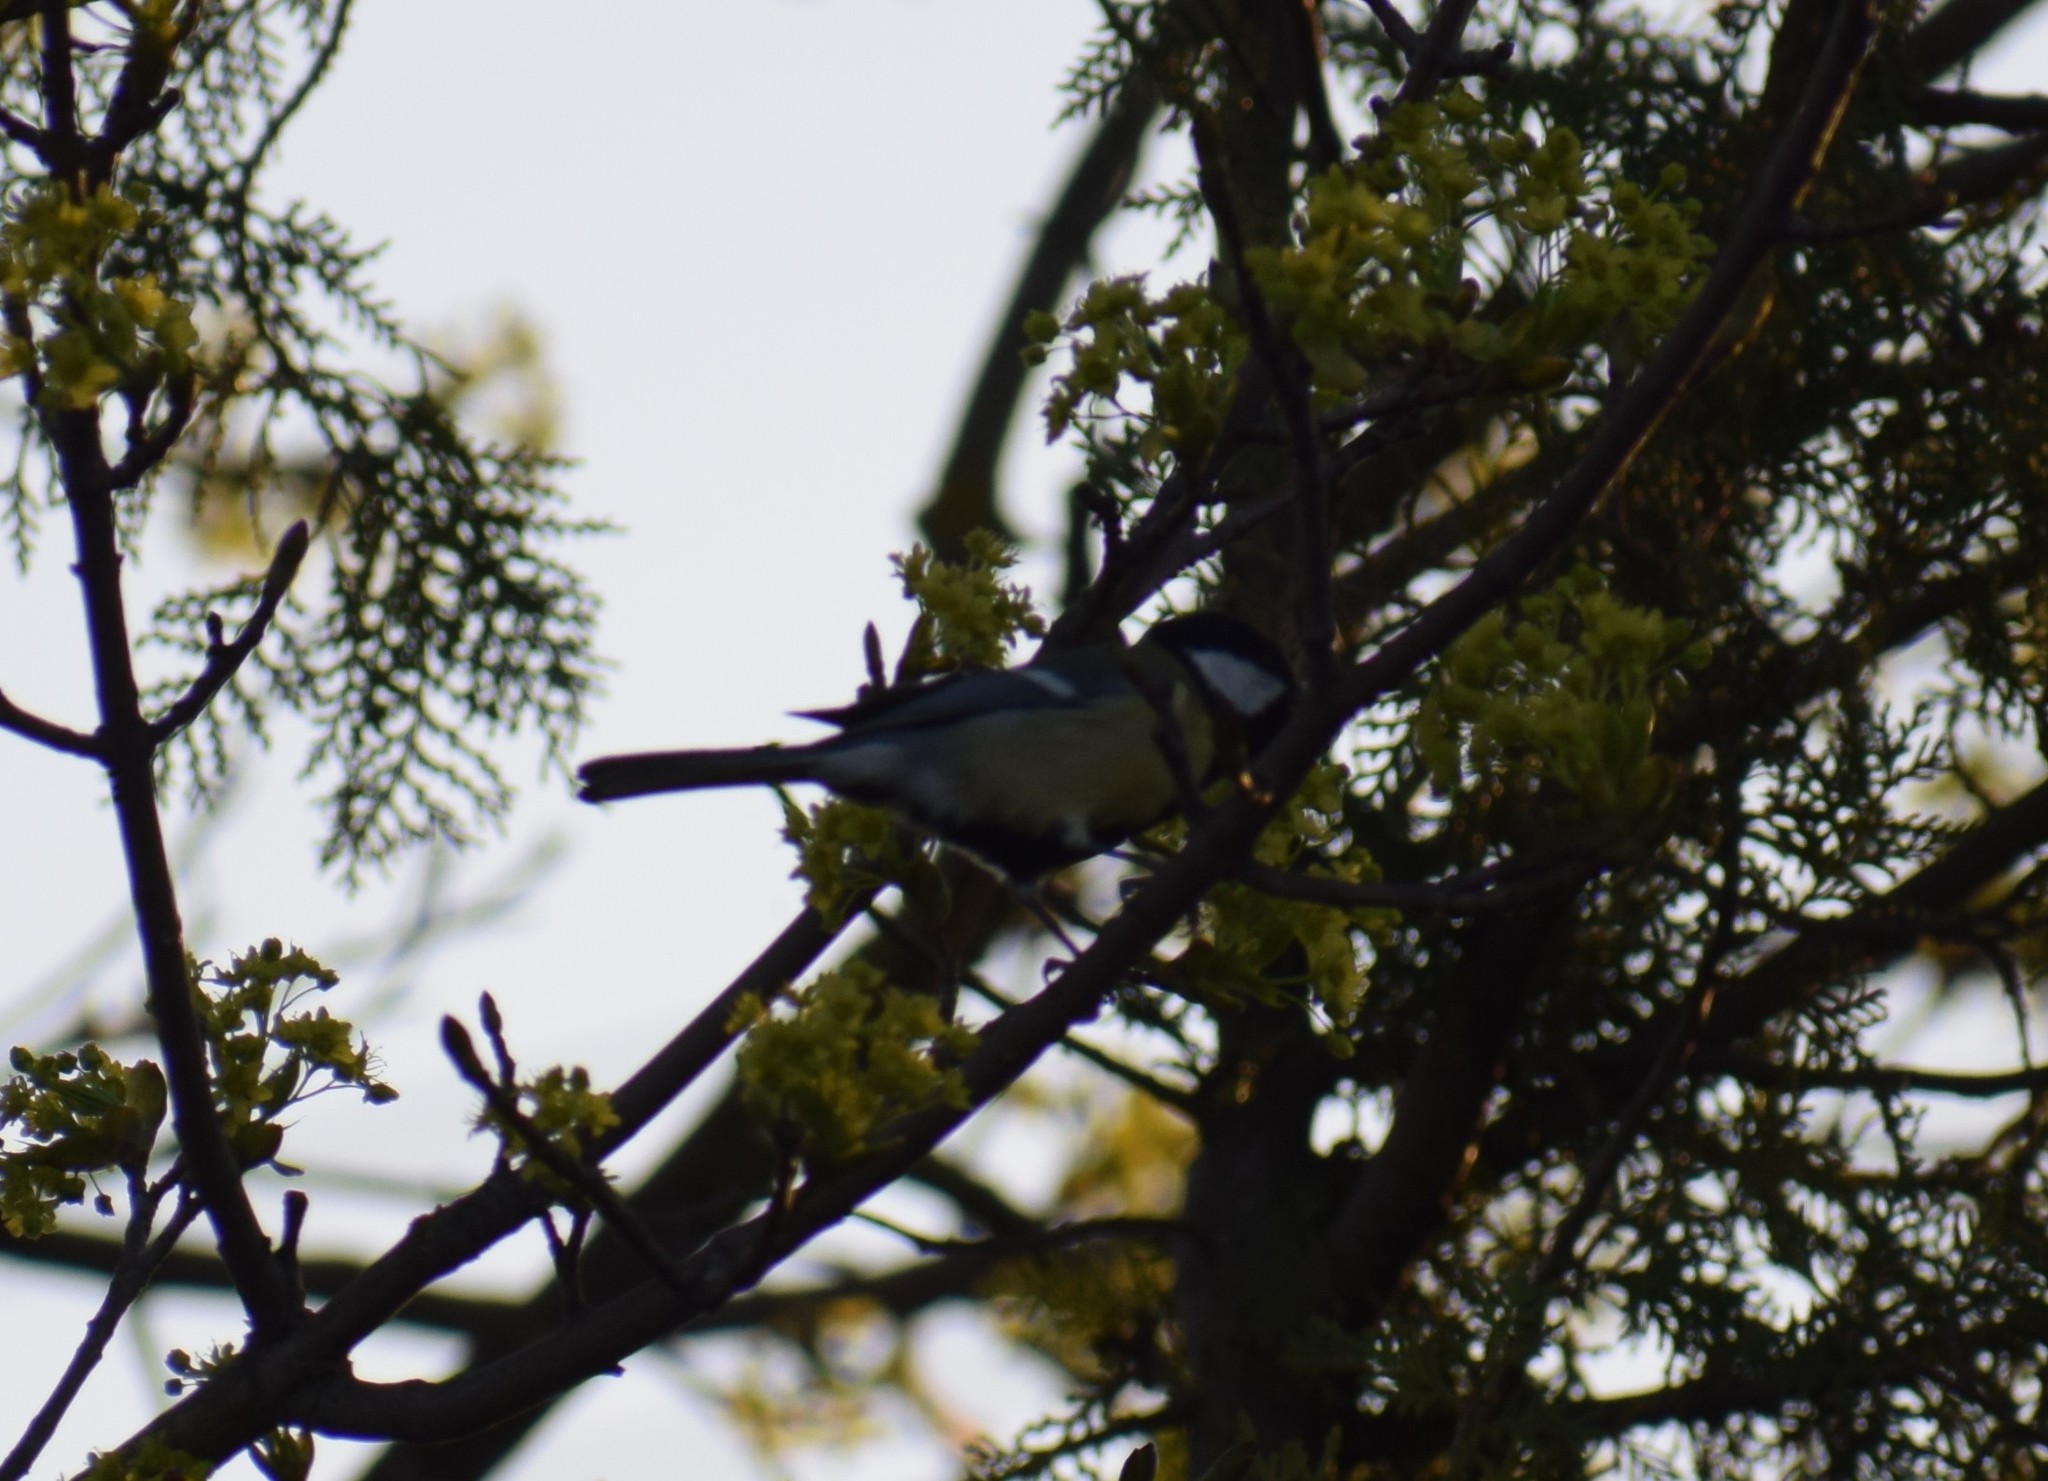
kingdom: Animalia
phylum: Chordata
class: Aves
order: Passeriformes
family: Paridae
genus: Parus
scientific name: Parus major
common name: Great tit
